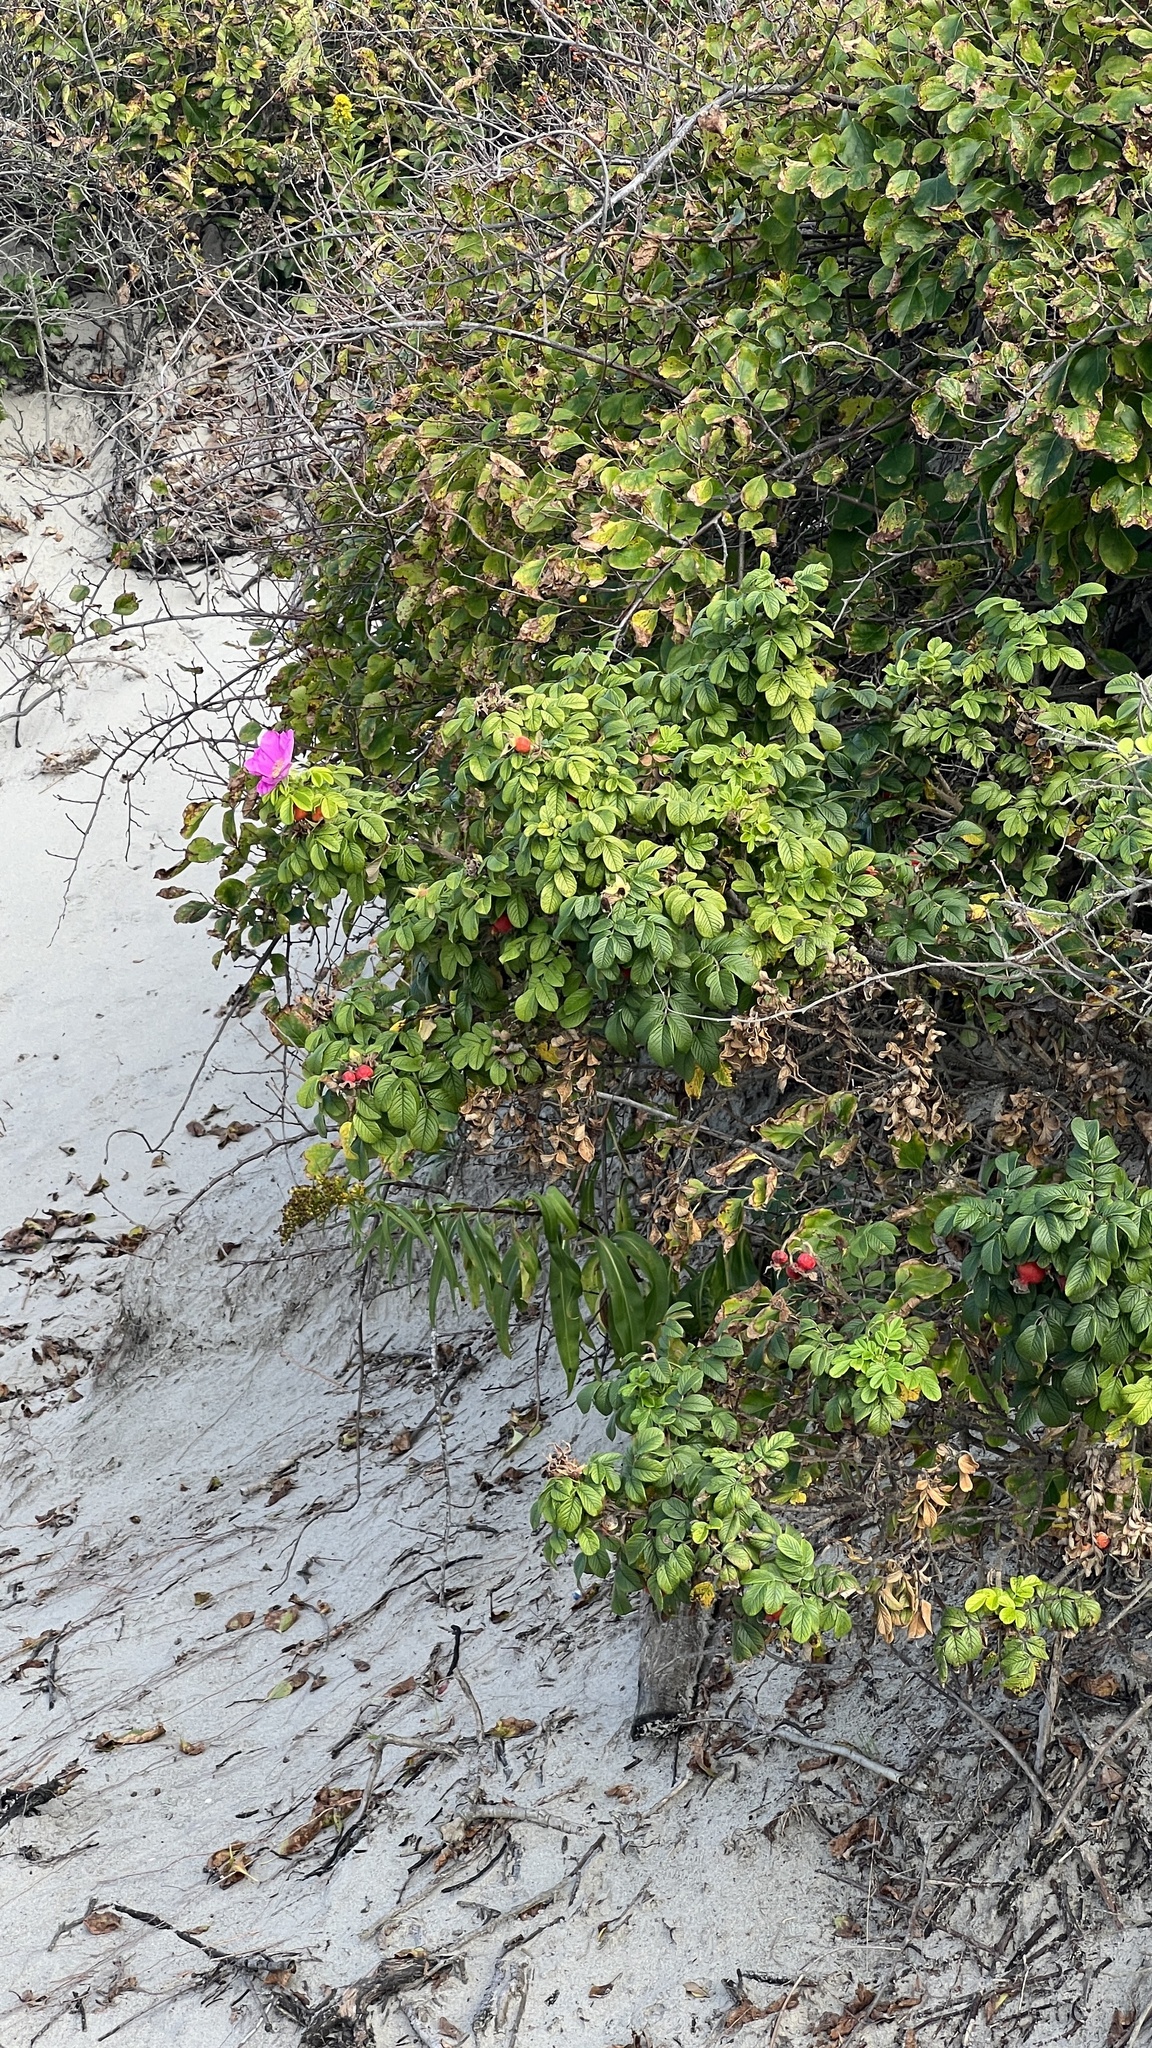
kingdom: Plantae
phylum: Tracheophyta
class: Magnoliopsida
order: Rosales
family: Rosaceae
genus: Rosa
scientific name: Rosa rugosa
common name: Japanese rose
